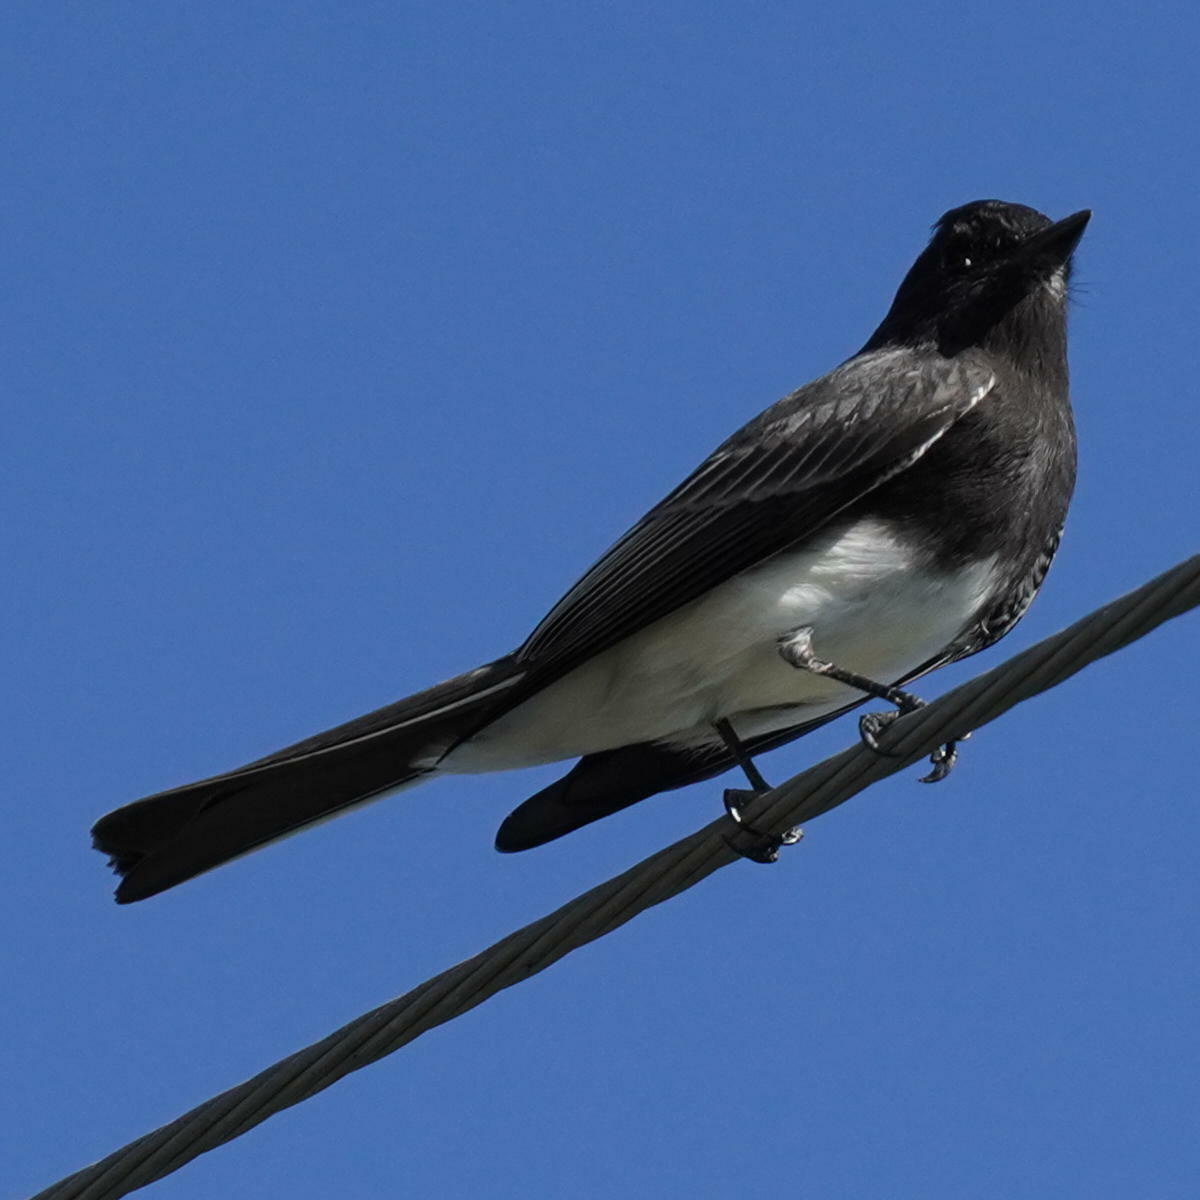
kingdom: Animalia
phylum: Chordata
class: Aves
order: Passeriformes
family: Tyrannidae
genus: Sayornis
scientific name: Sayornis nigricans
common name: Black phoebe
